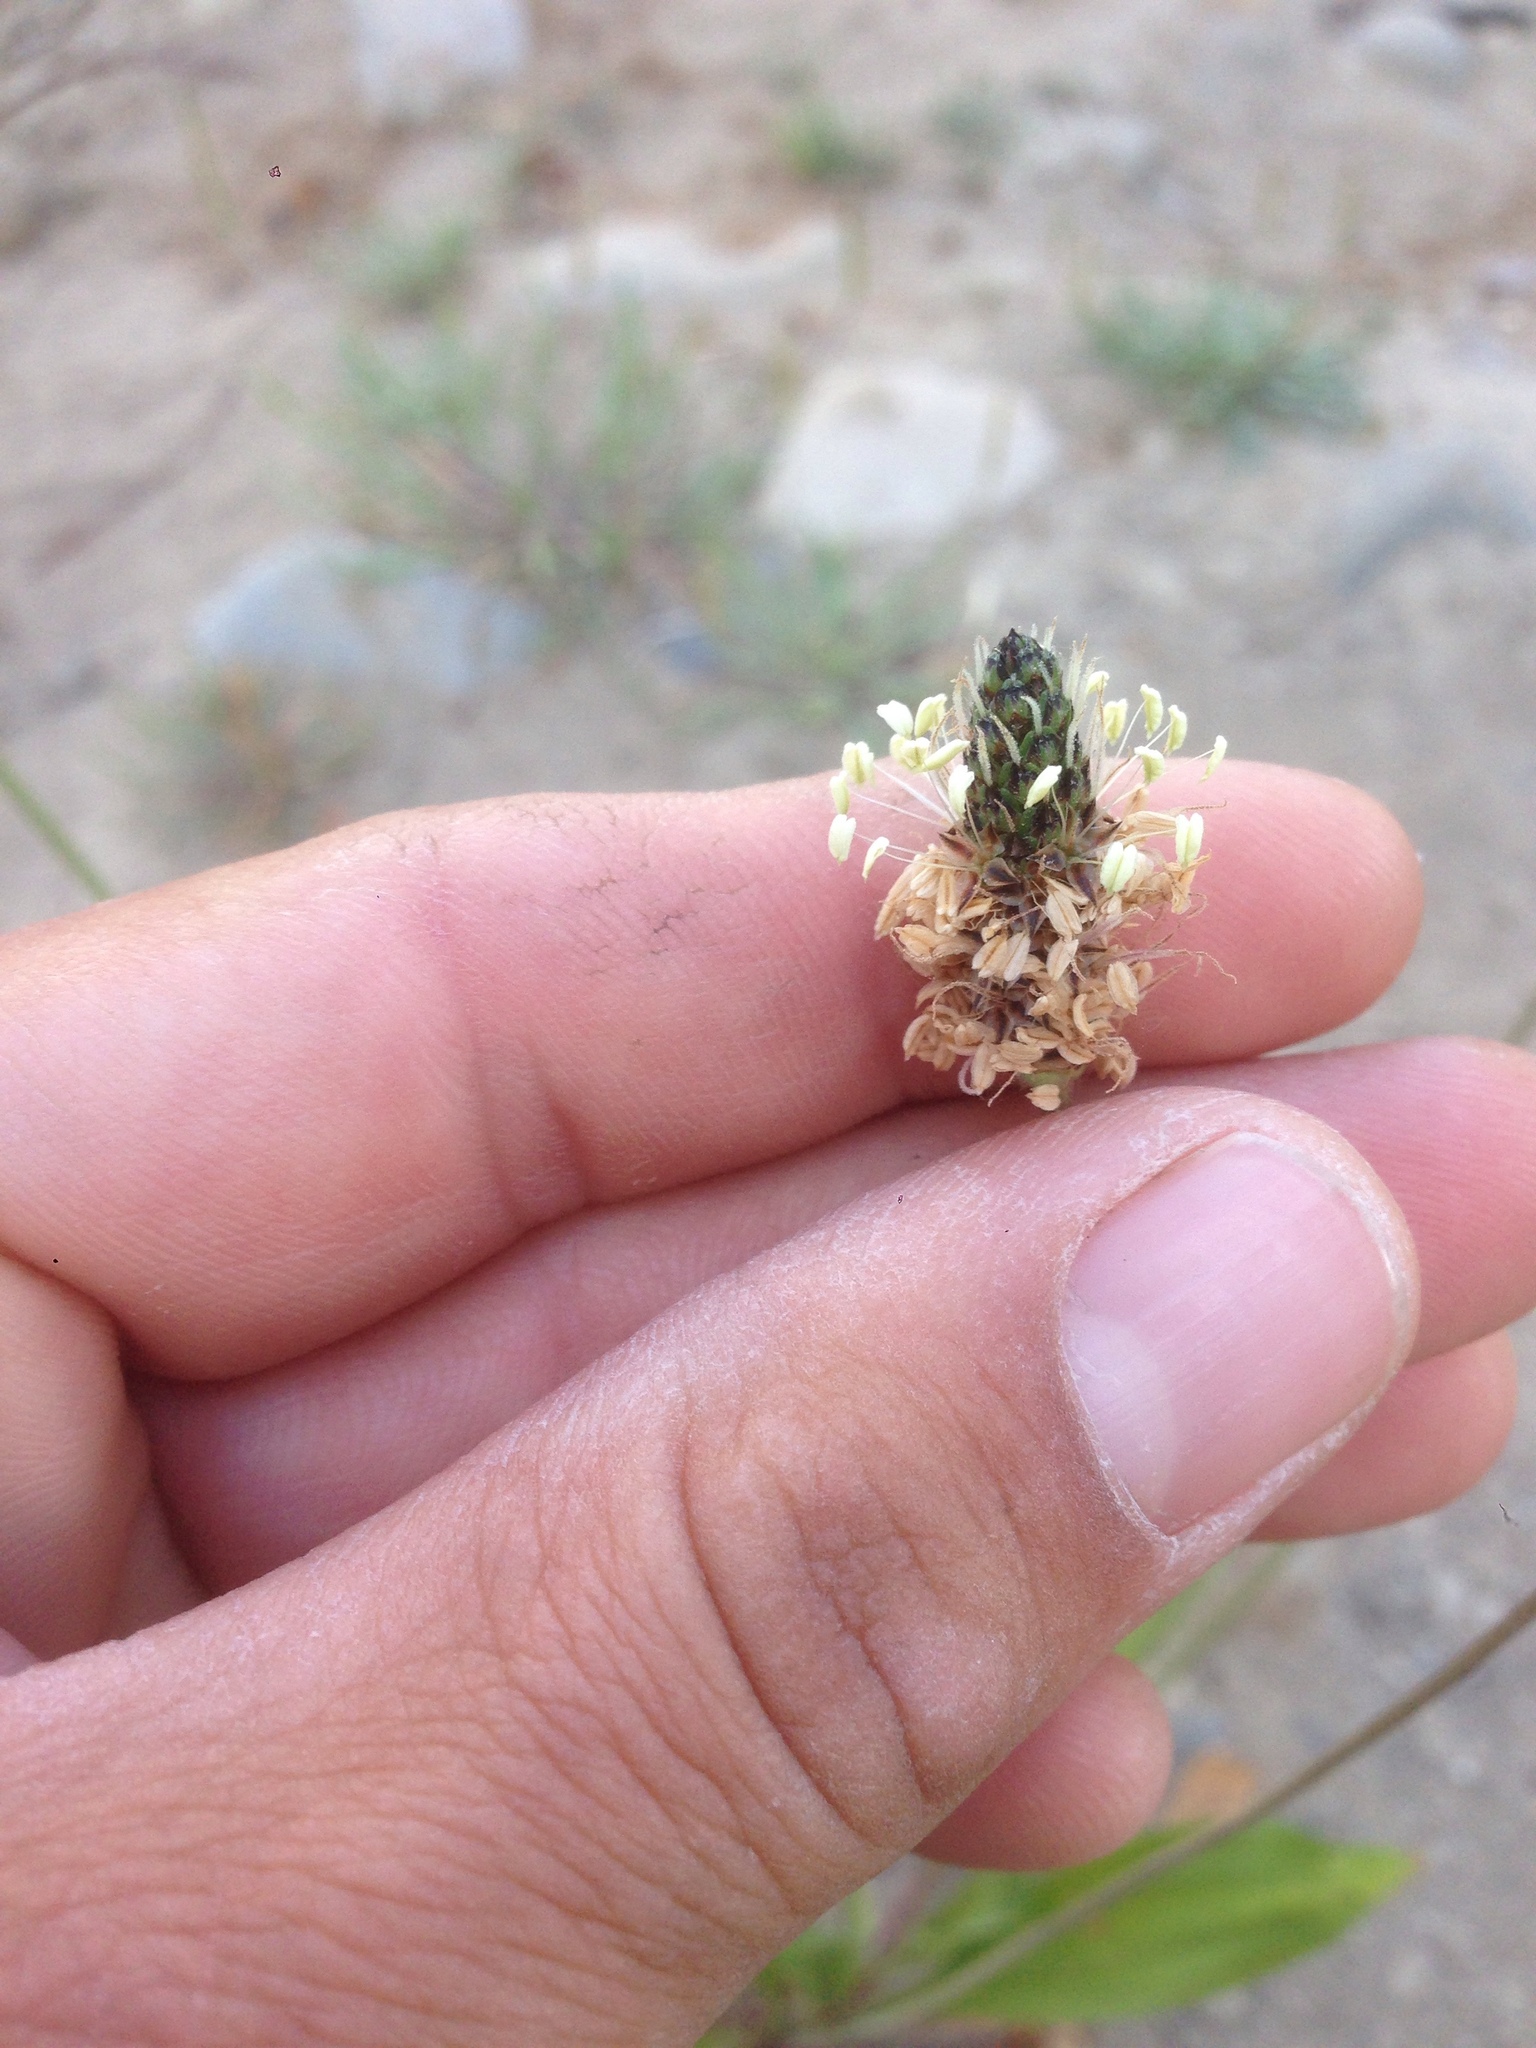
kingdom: Plantae
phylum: Tracheophyta
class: Magnoliopsida
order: Lamiales
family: Plantaginaceae
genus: Plantago
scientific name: Plantago lanceolata
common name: Ribwort plantain
